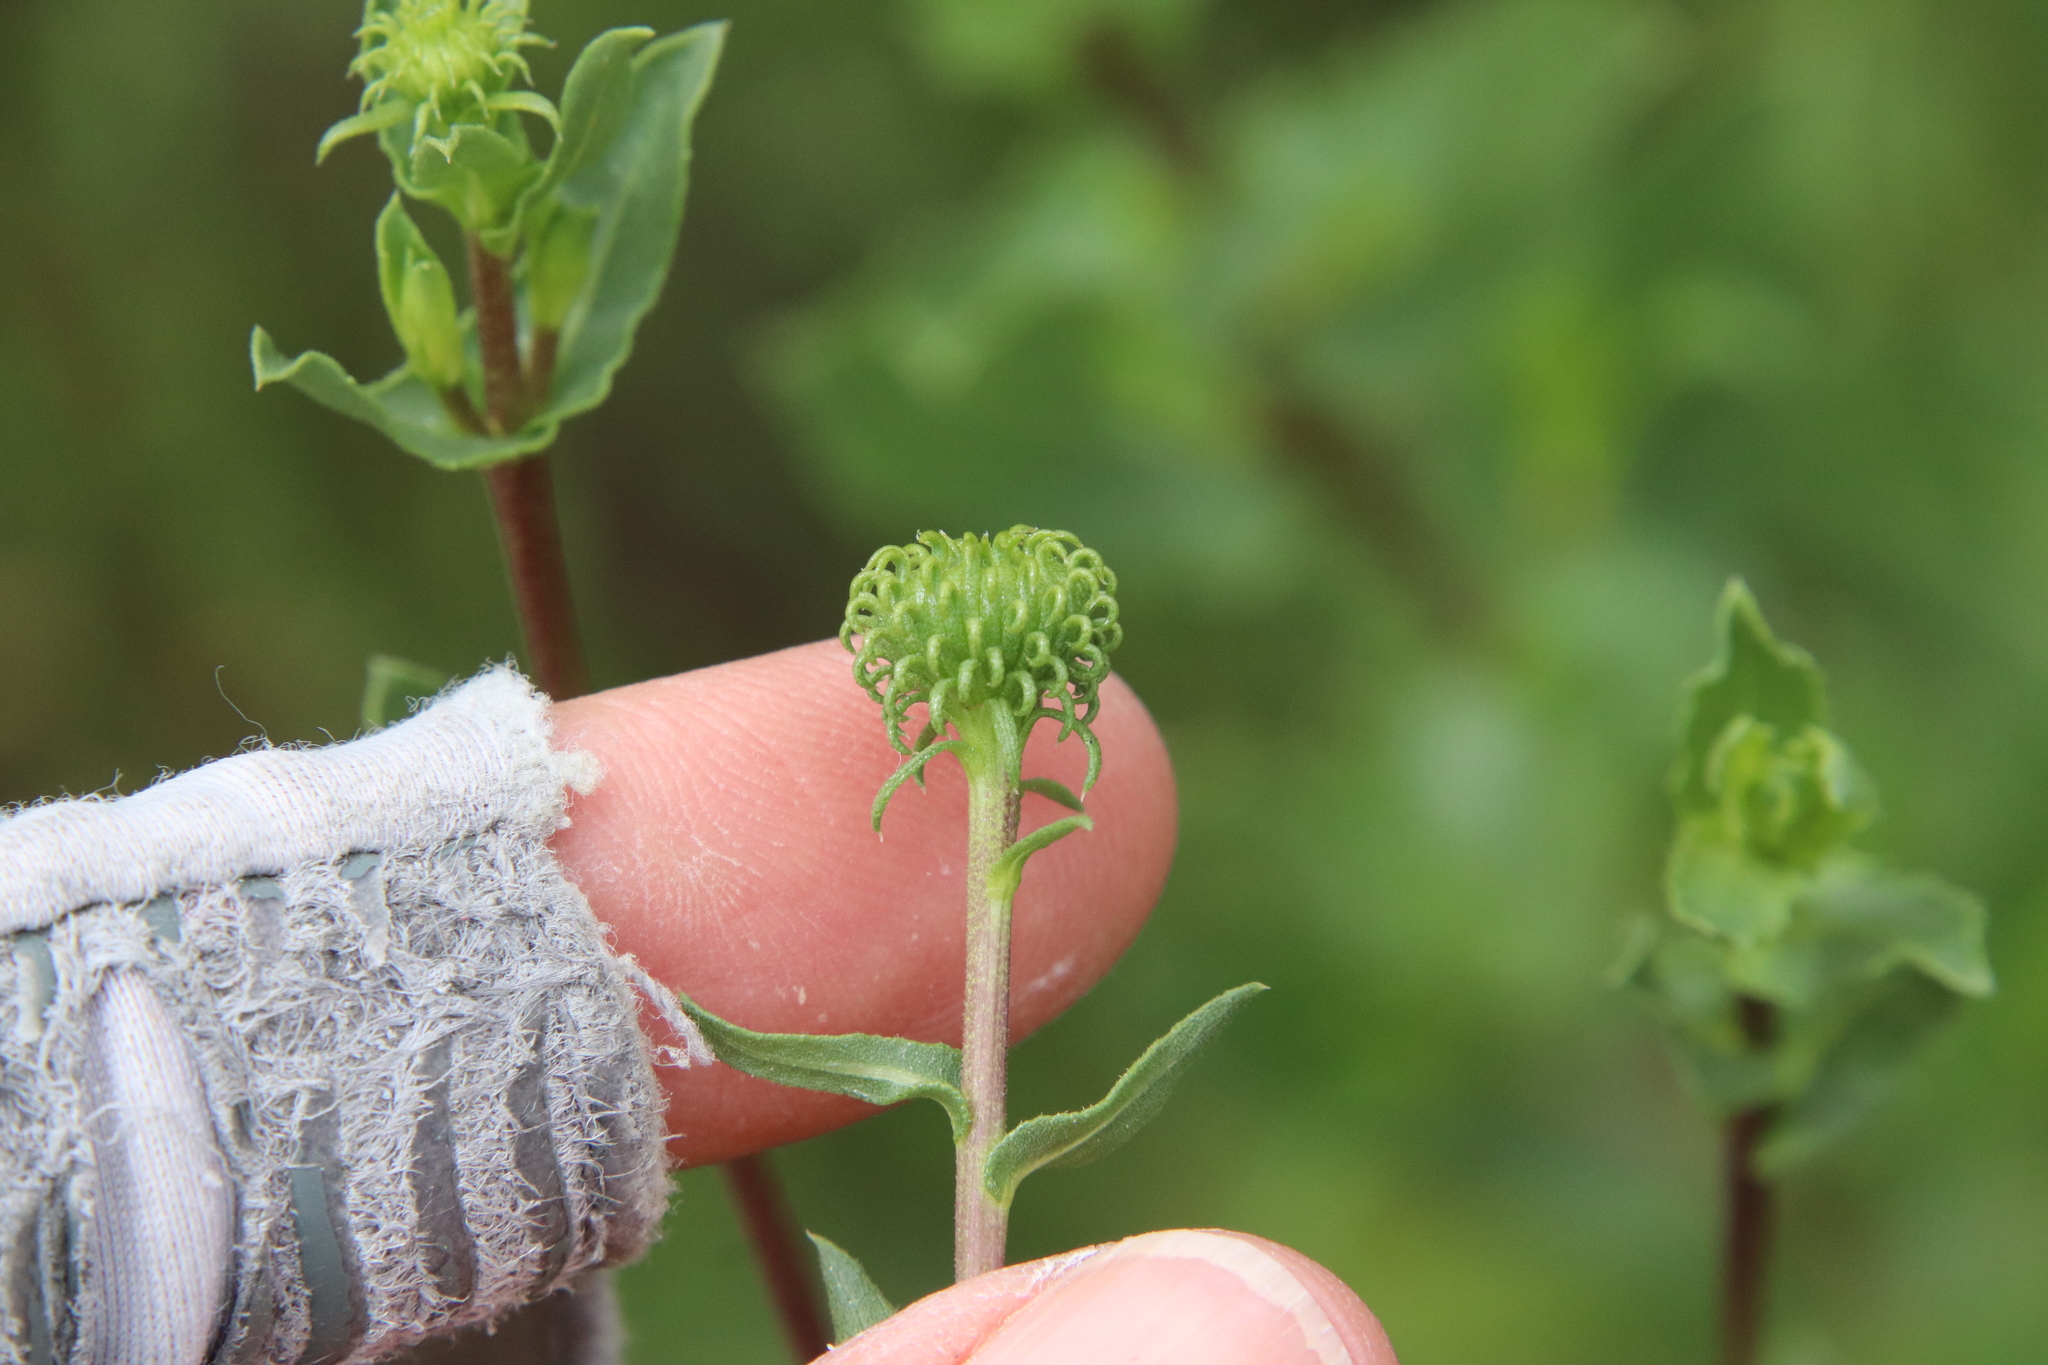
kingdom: Plantae
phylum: Tracheophyta
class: Magnoliopsida
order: Asterales
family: Asteraceae
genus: Grindelia
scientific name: Grindelia hirsutula
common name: Hairy gumweed
